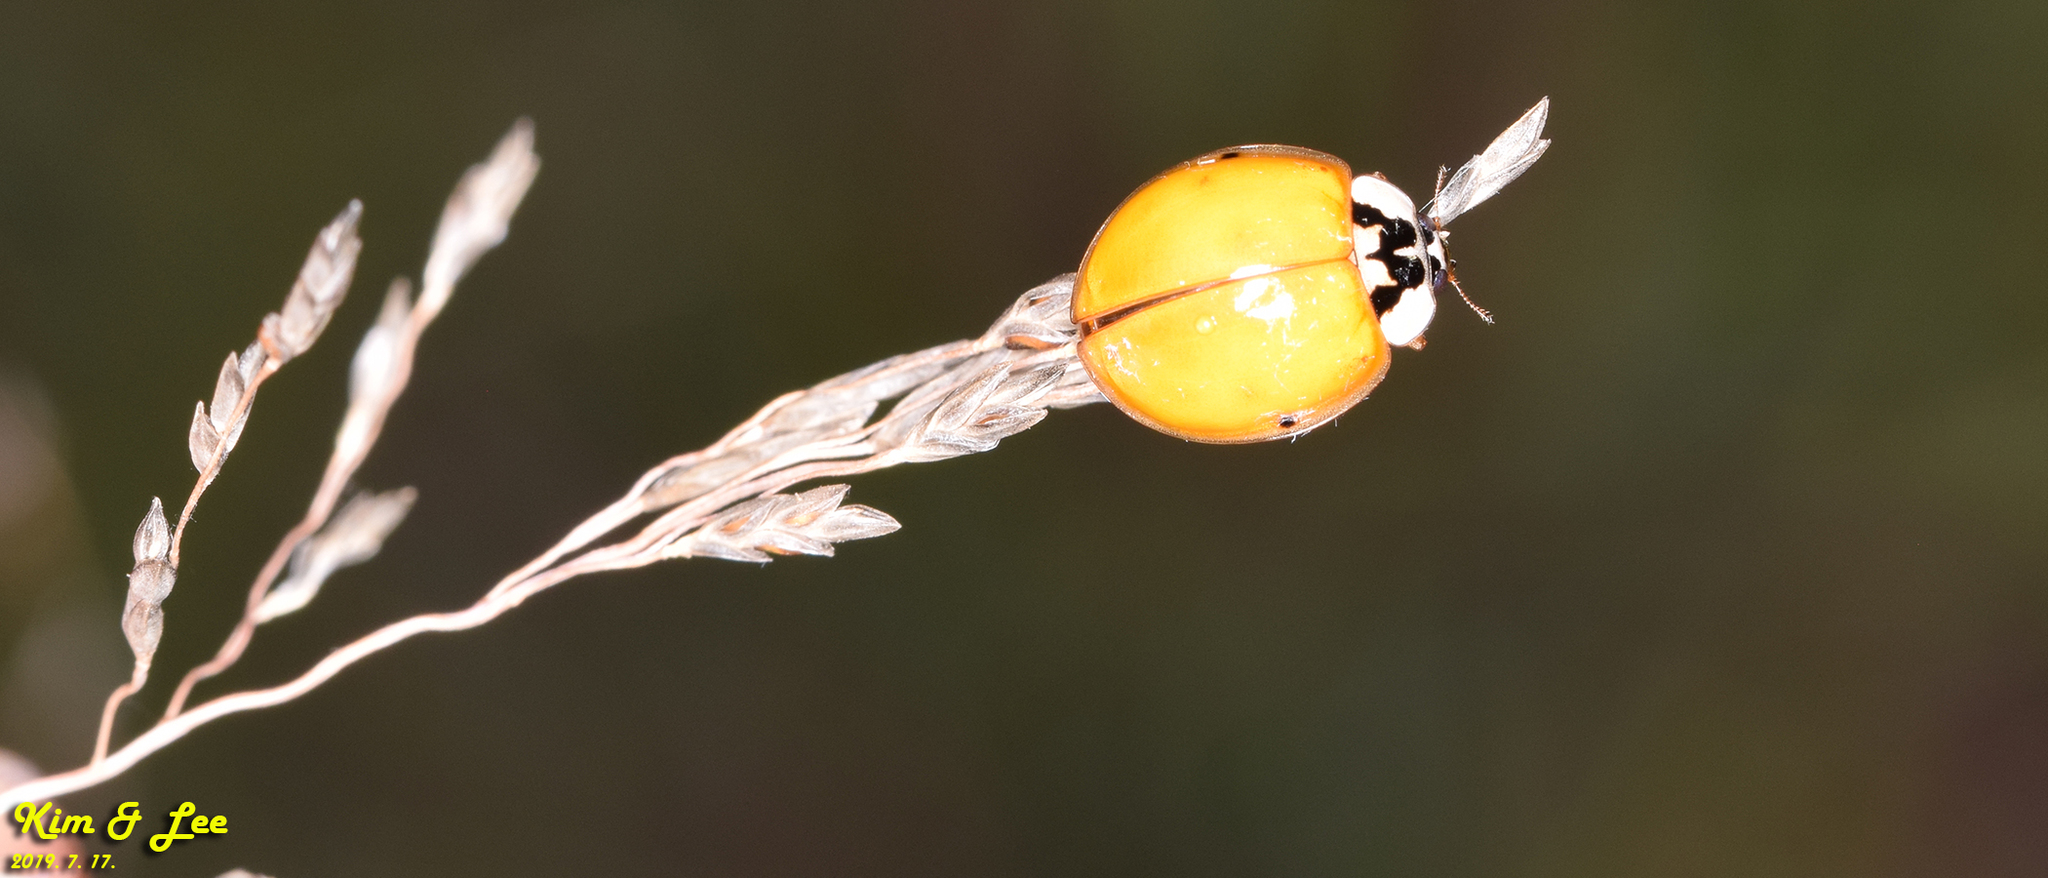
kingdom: Animalia
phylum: Arthropoda
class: Insecta
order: Coleoptera
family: Coccinellidae
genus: Harmonia
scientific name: Harmonia axyridis
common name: Harlequin ladybird
